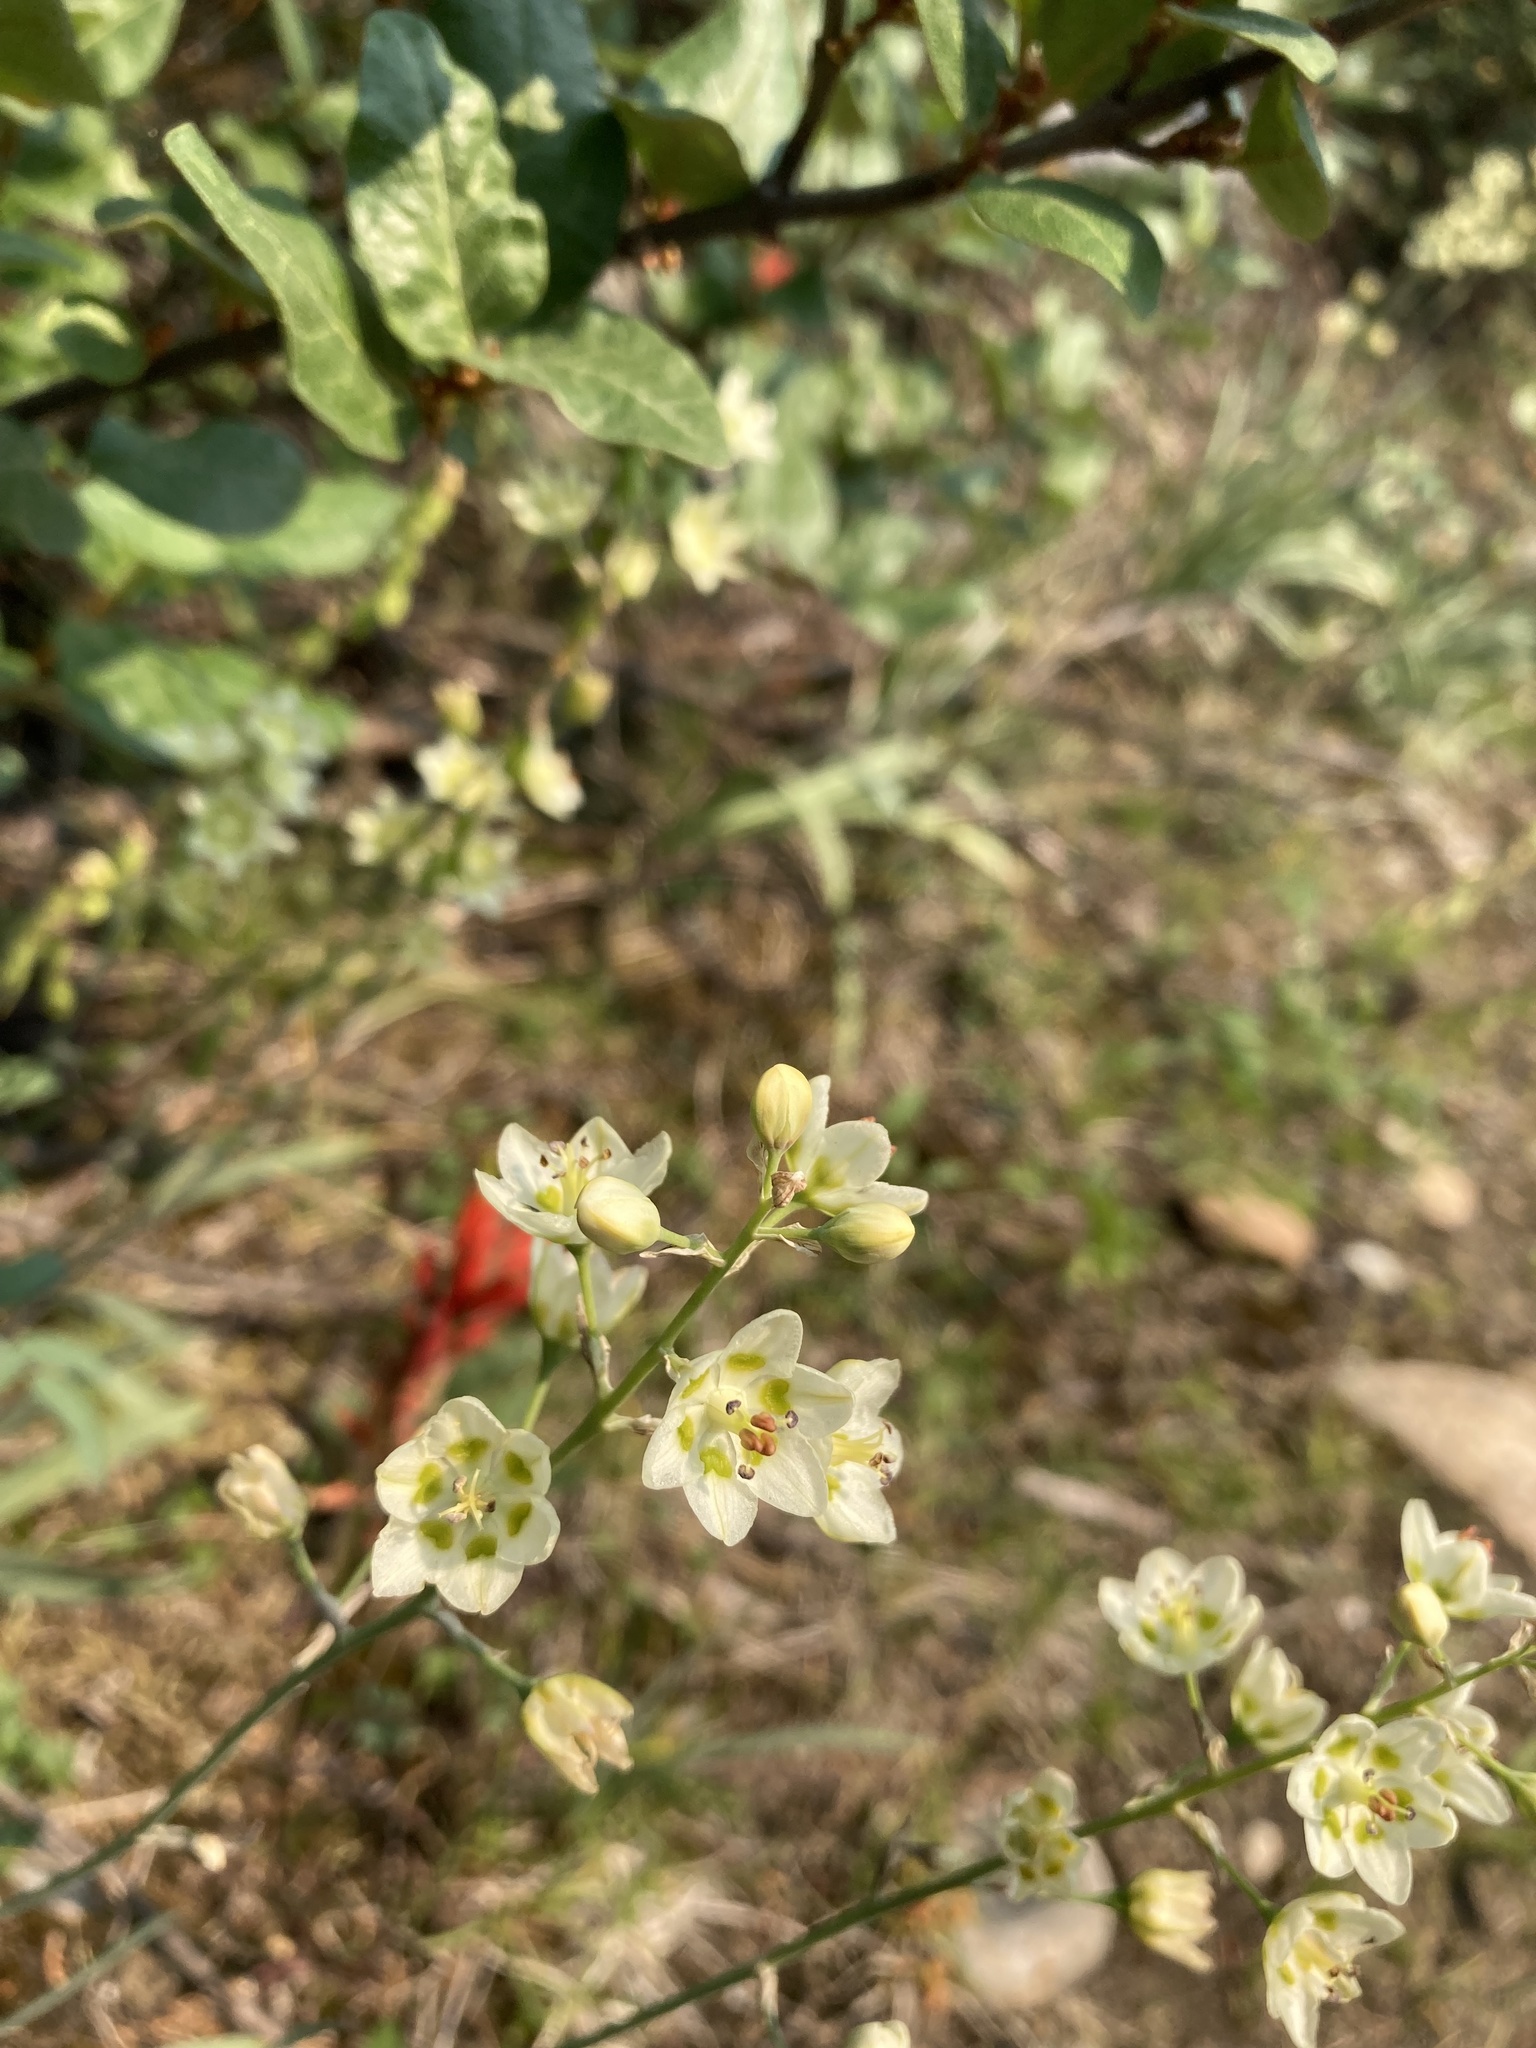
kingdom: Plantae
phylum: Tracheophyta
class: Liliopsida
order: Liliales
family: Melanthiaceae
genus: Anticlea
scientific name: Anticlea elegans
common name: Mountain death camas
